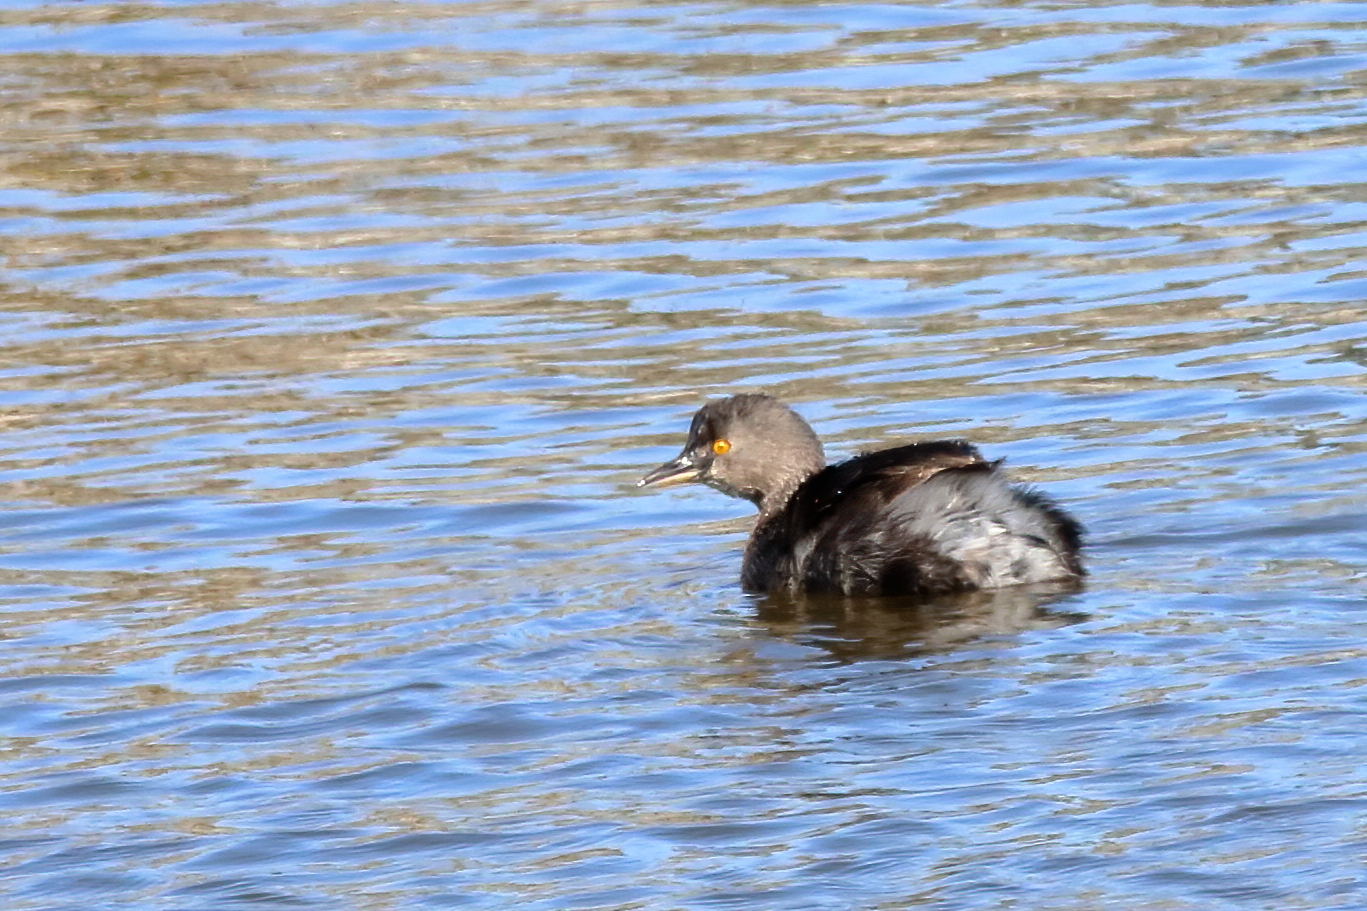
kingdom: Animalia
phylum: Chordata
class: Aves
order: Podicipediformes
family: Podicipedidae
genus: Tachybaptus
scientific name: Tachybaptus dominicus
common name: Least grebe
